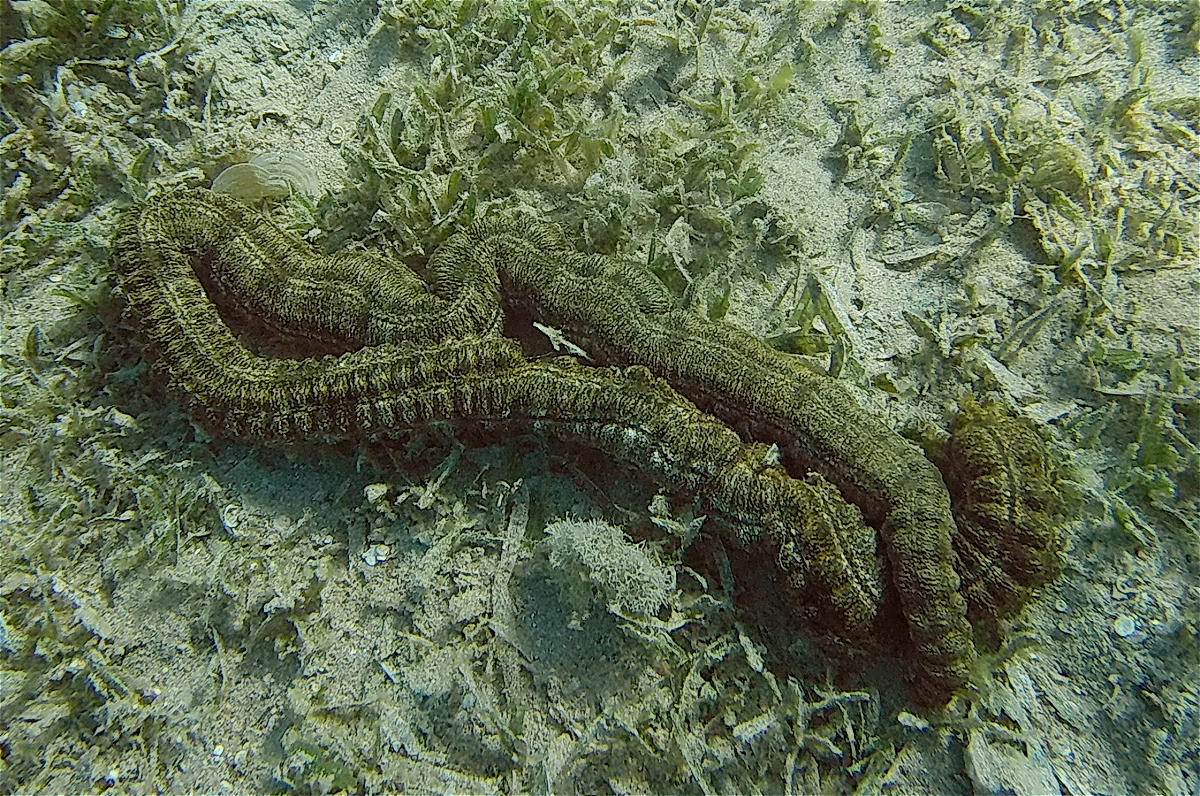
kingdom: Animalia
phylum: Echinodermata
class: Holothuroidea
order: Apodida
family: Synaptidae
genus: Synapta
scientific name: Synapta maculata
